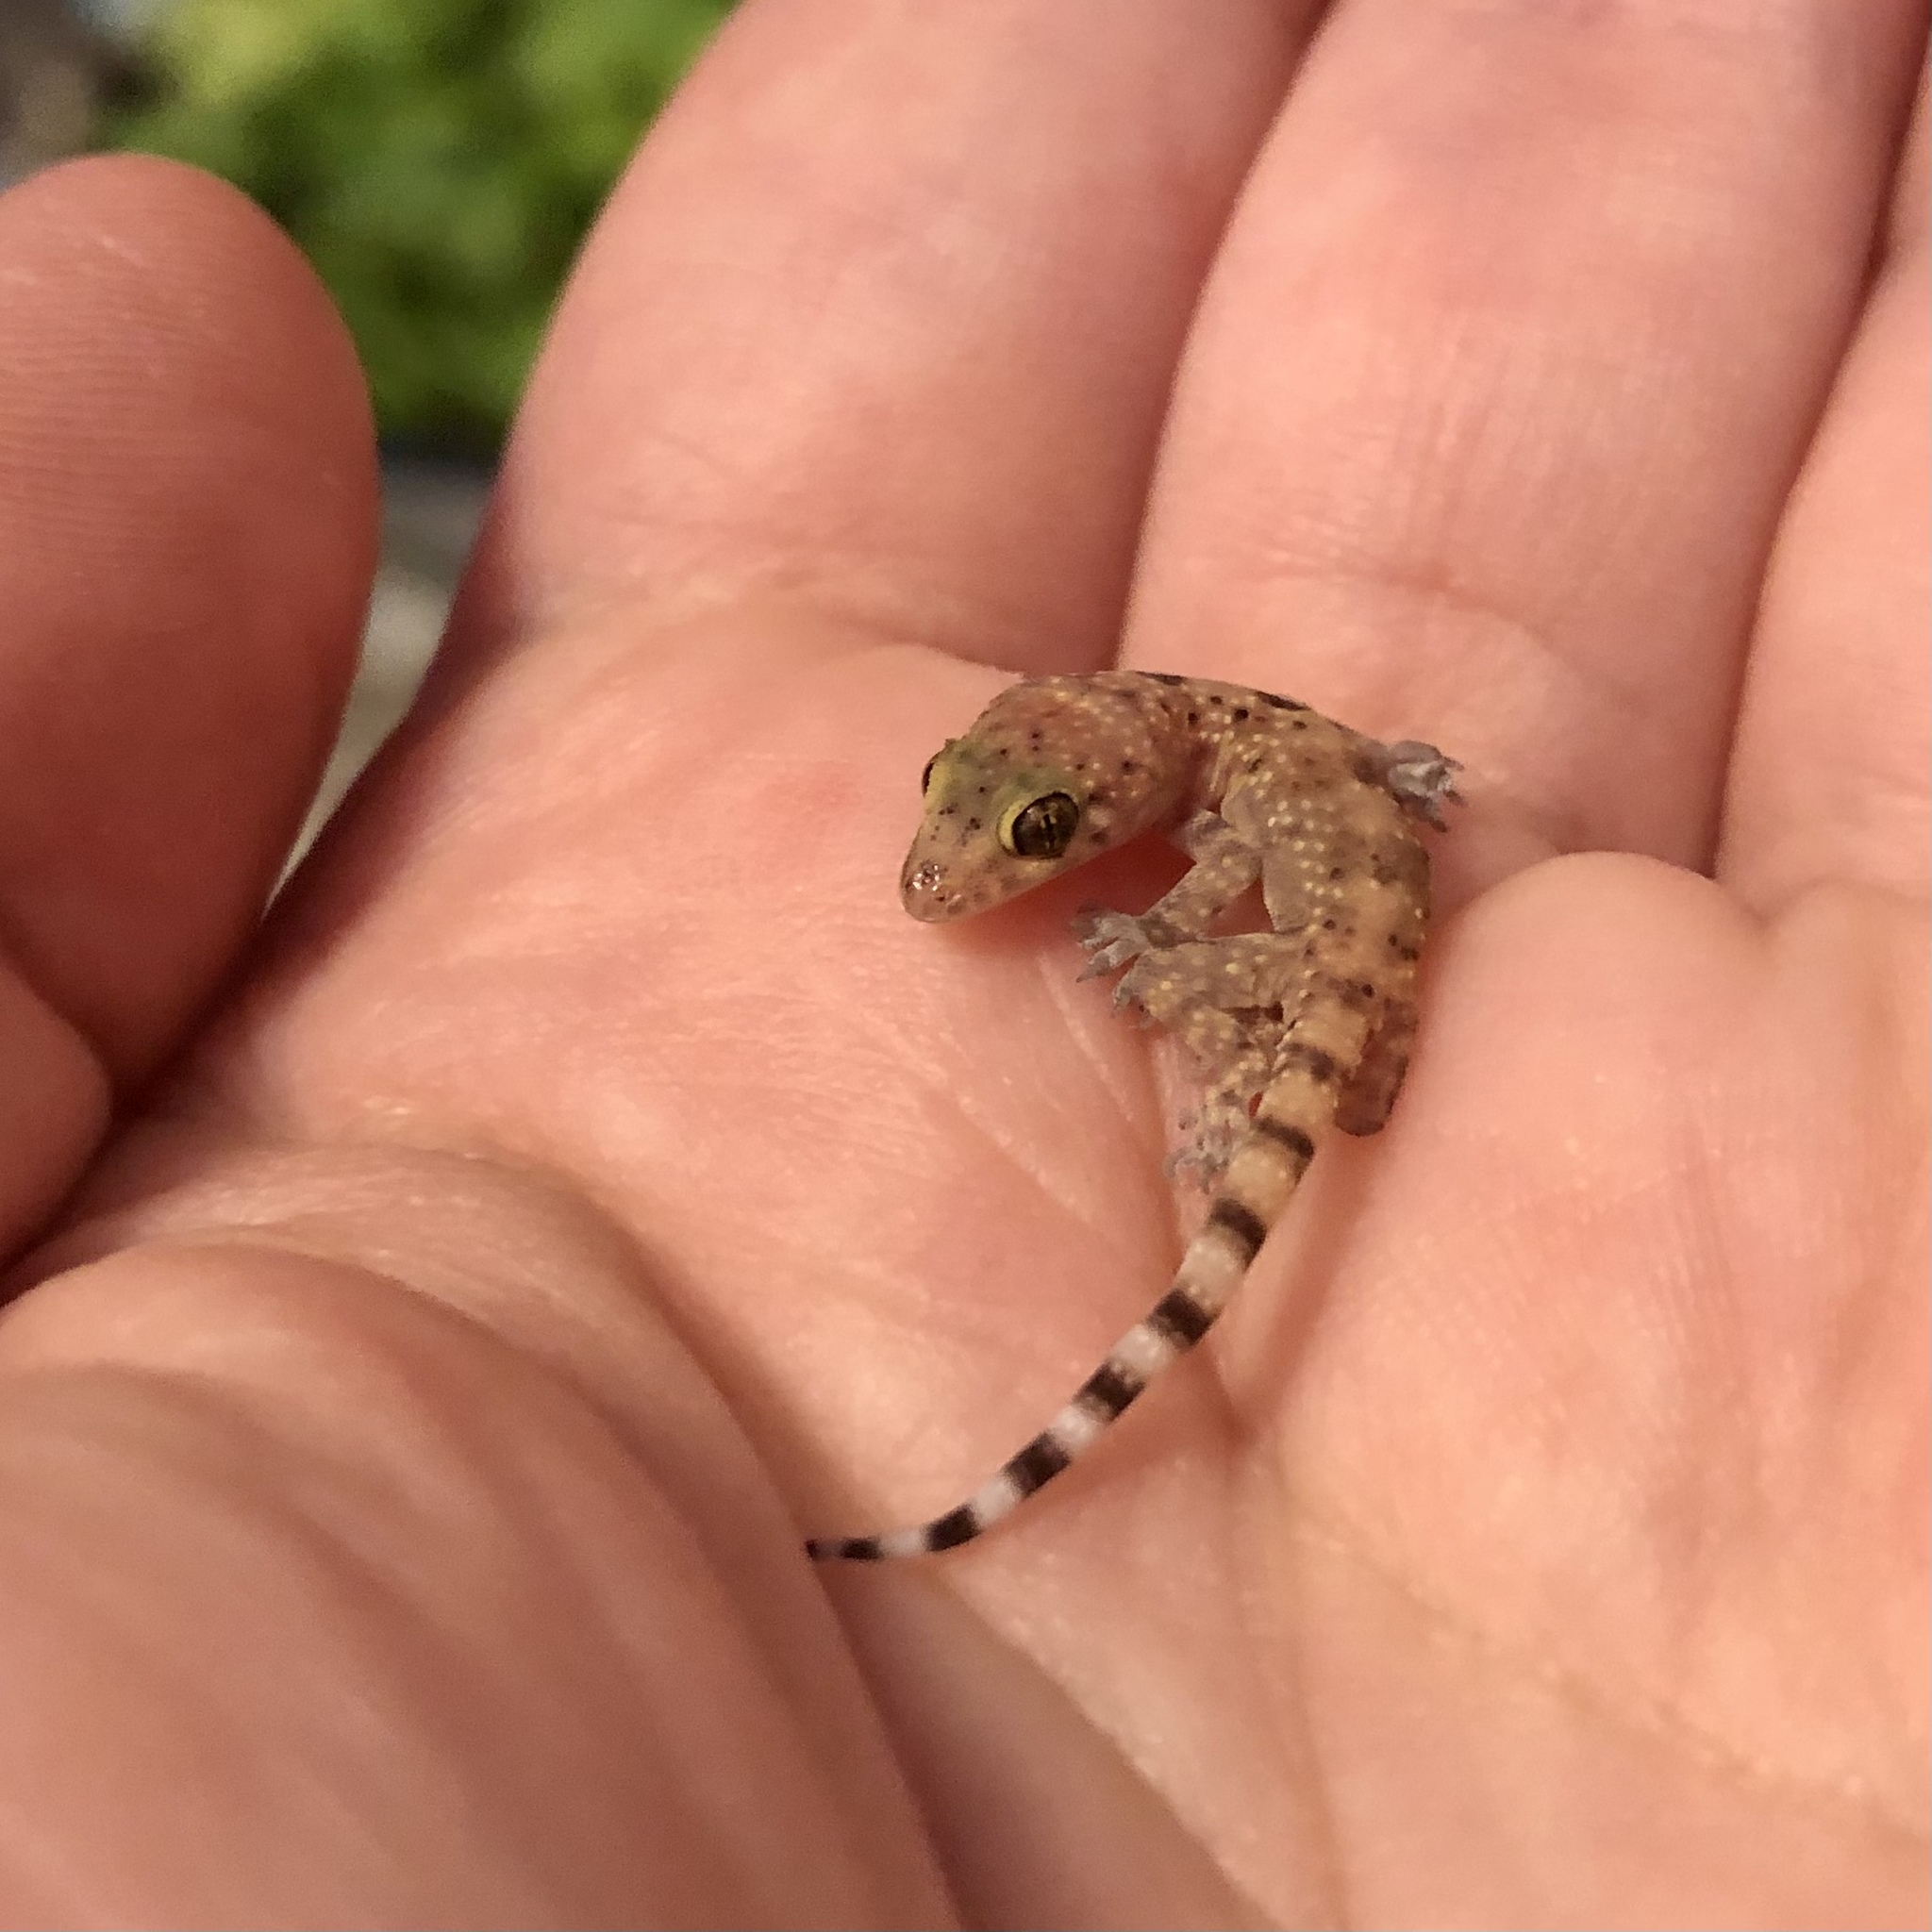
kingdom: Animalia
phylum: Chordata
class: Squamata
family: Gekkonidae
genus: Hemidactylus
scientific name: Hemidactylus turcicus
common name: Turkish gecko
